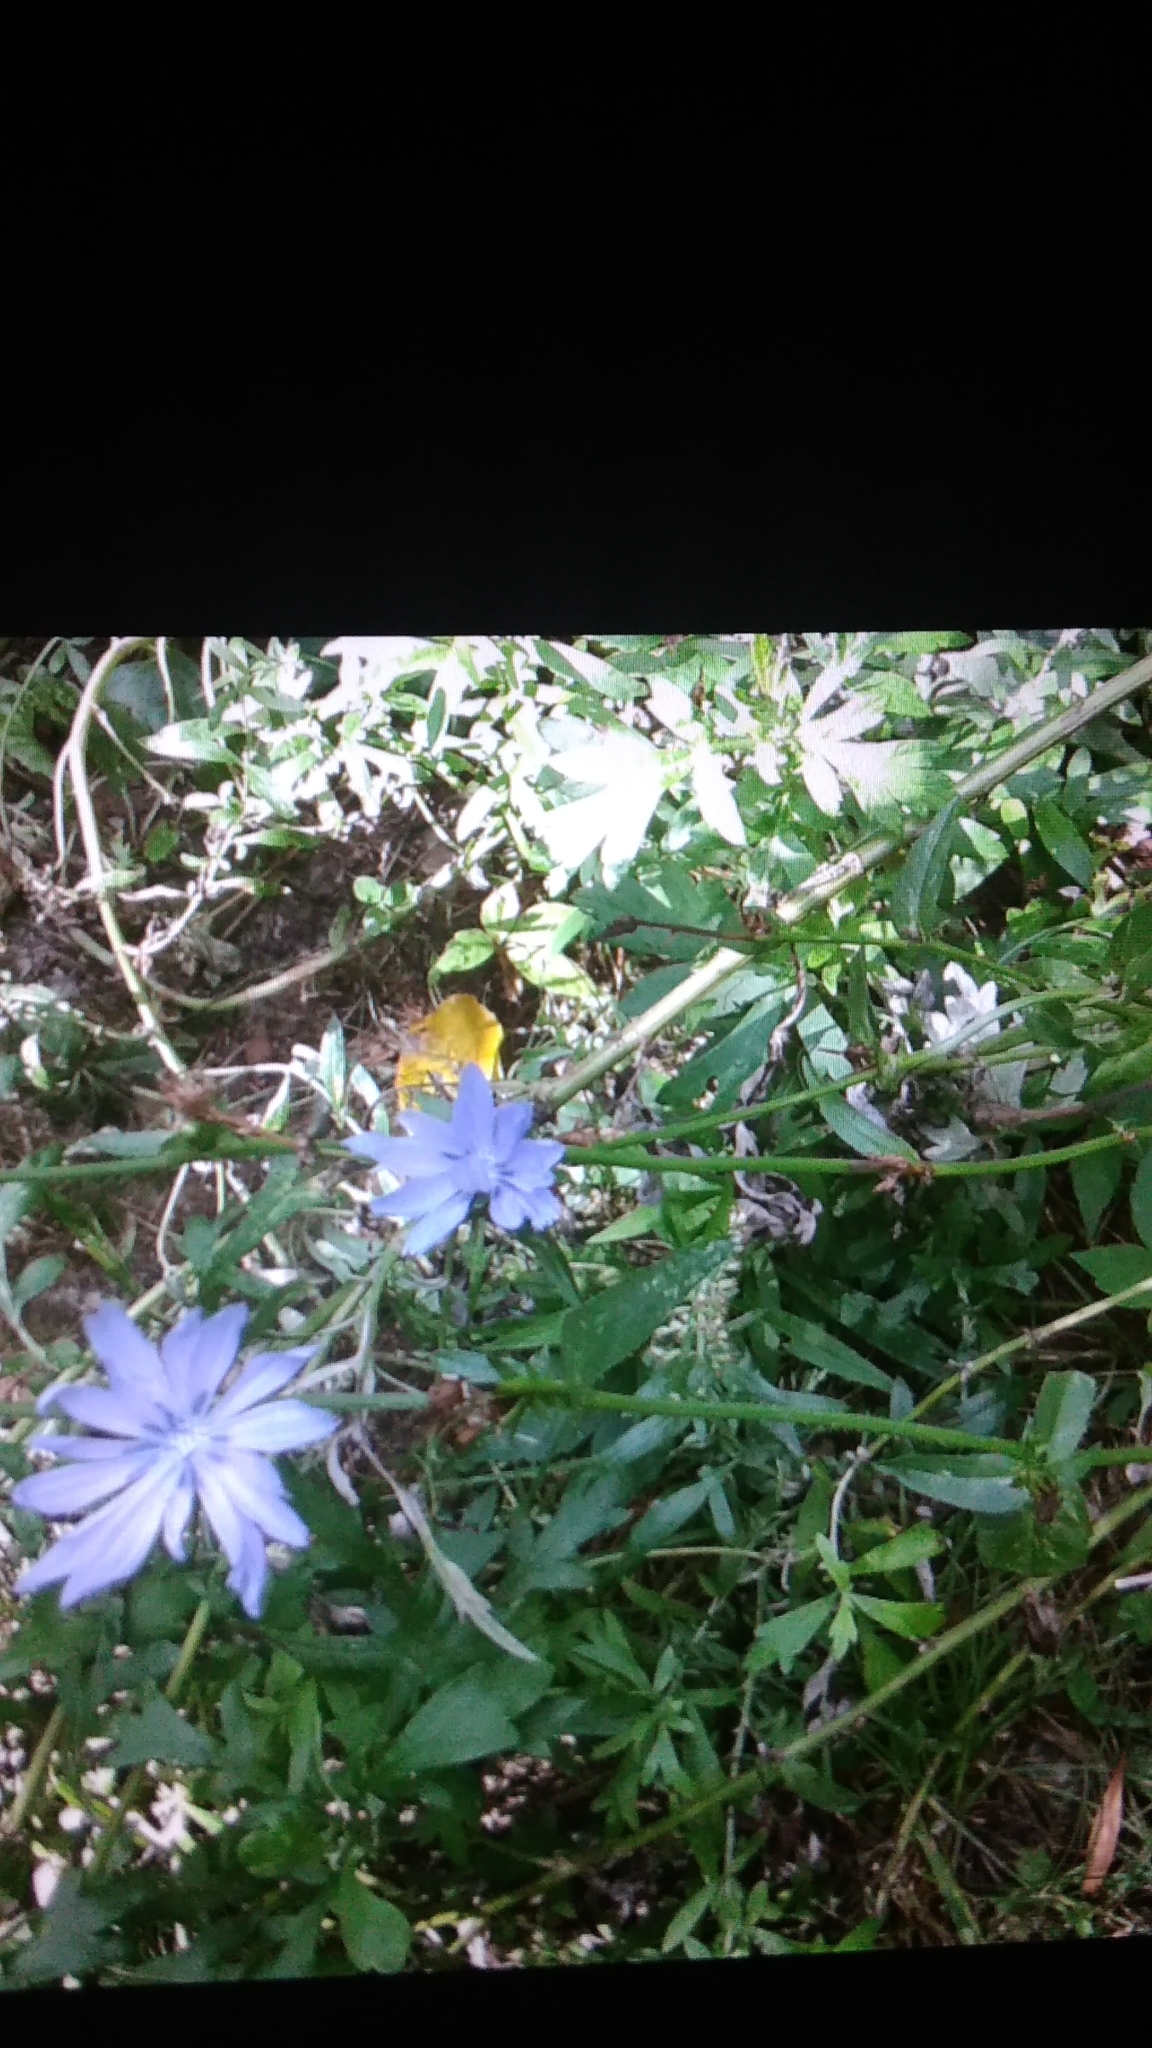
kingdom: Plantae
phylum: Tracheophyta
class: Magnoliopsida
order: Asterales
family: Asteraceae
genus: Cichorium
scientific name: Cichorium intybus
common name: Chicory
